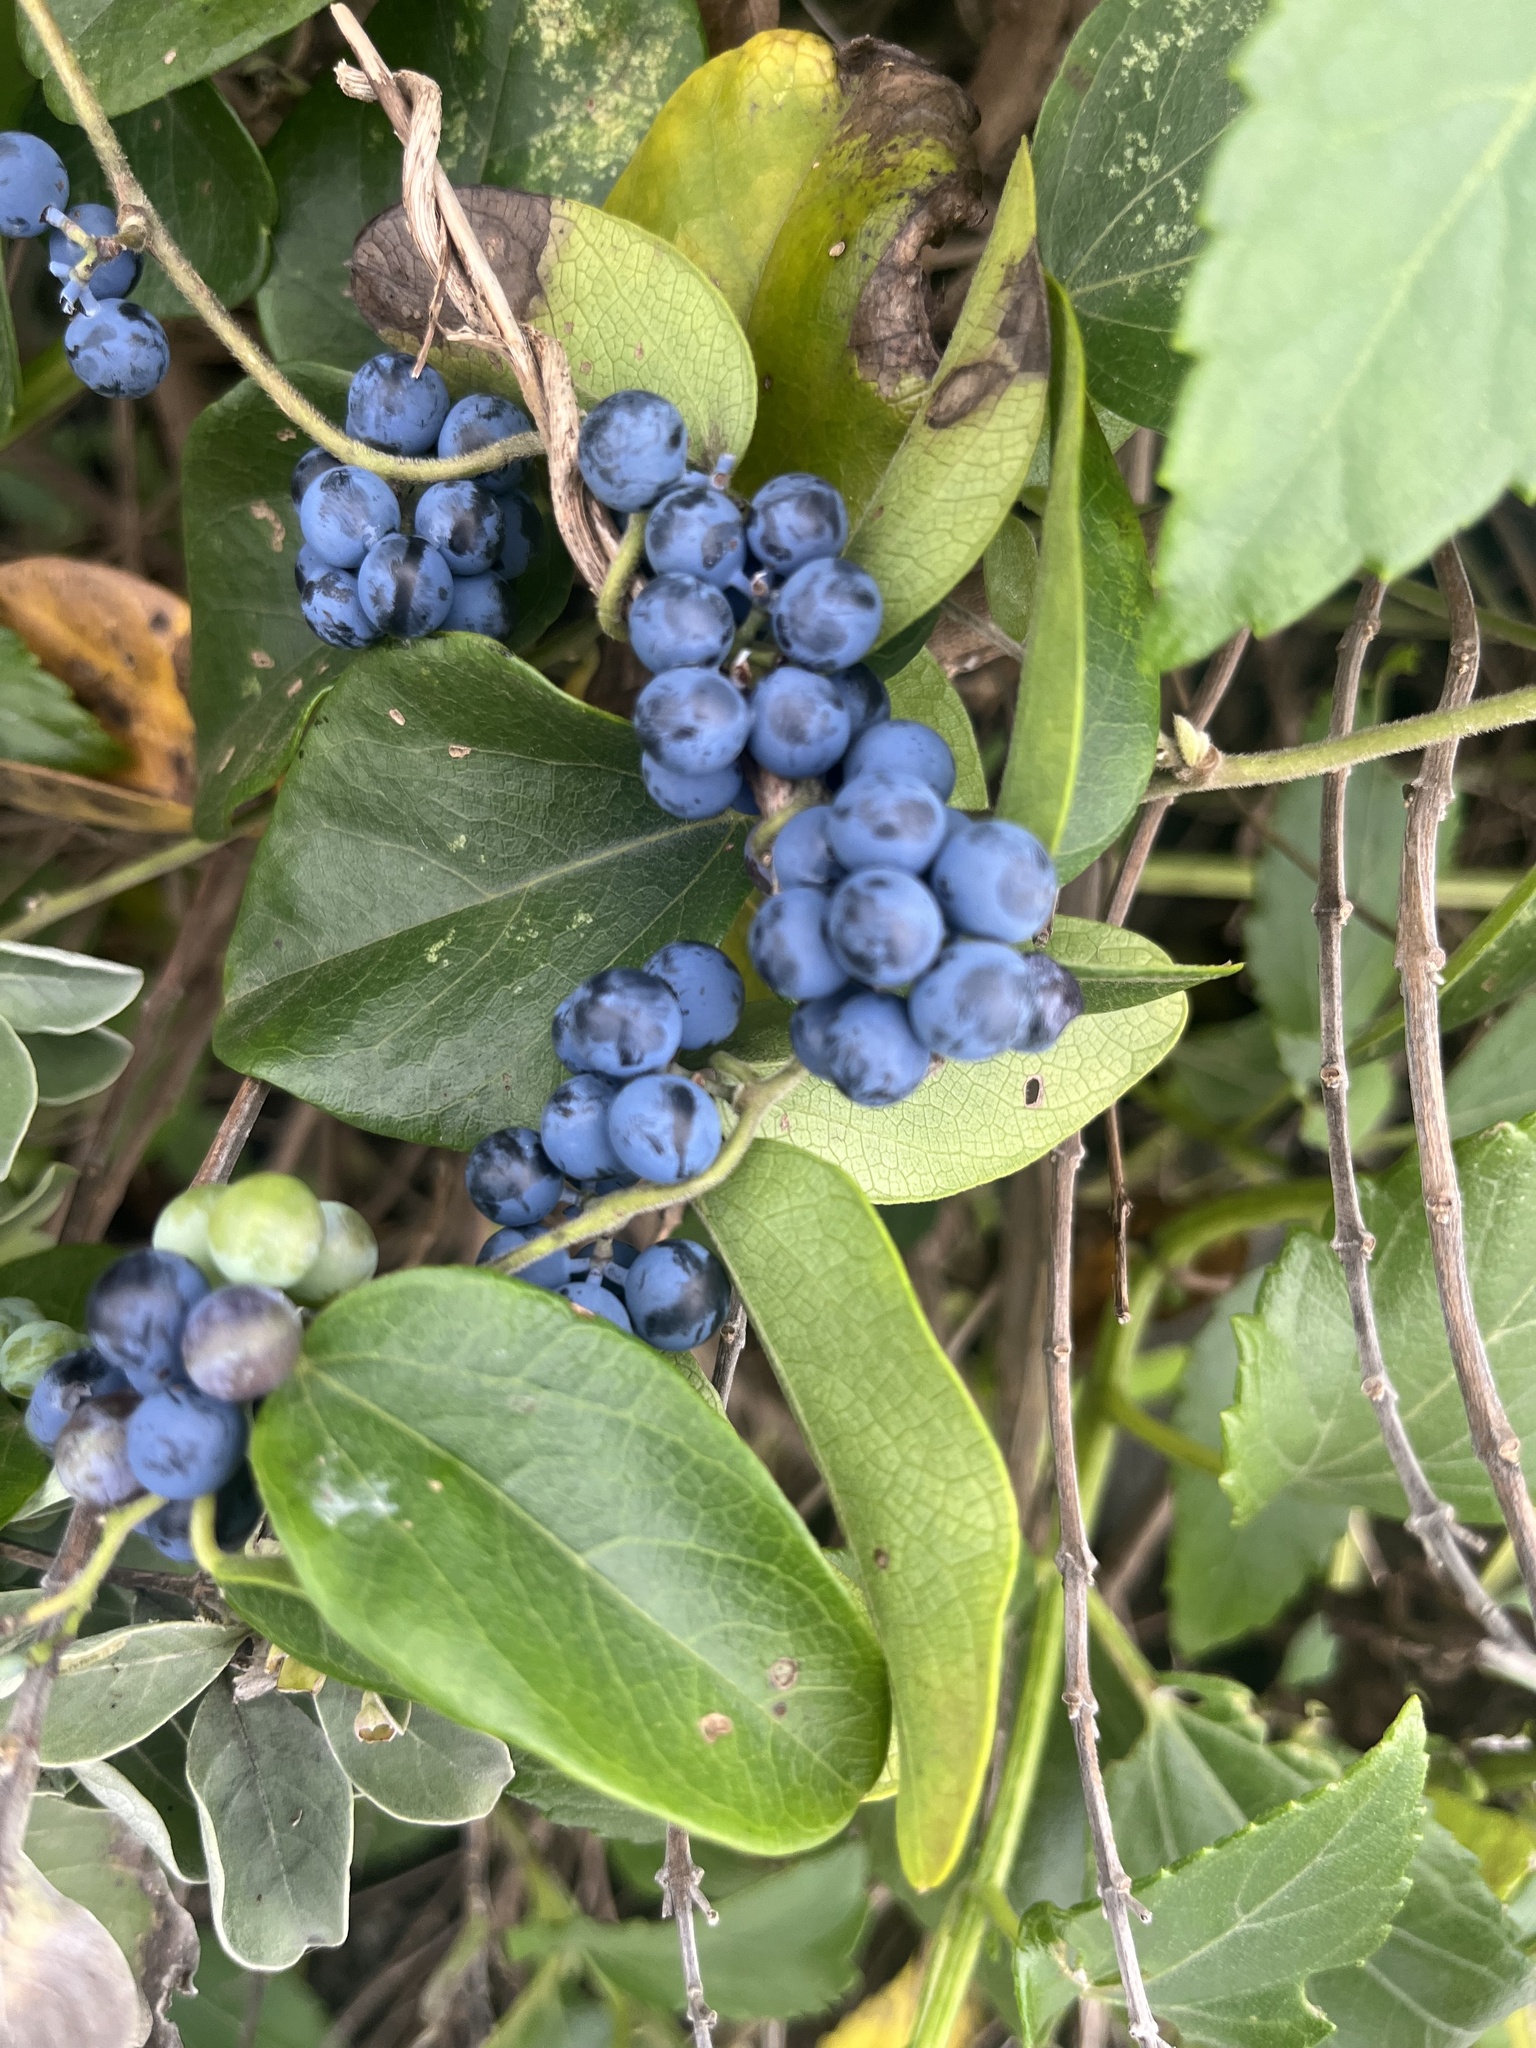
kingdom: Plantae
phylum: Tracheophyta
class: Magnoliopsida
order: Ranunculales
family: Menispermaceae
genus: Cocculus
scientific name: Cocculus orbiculatus
